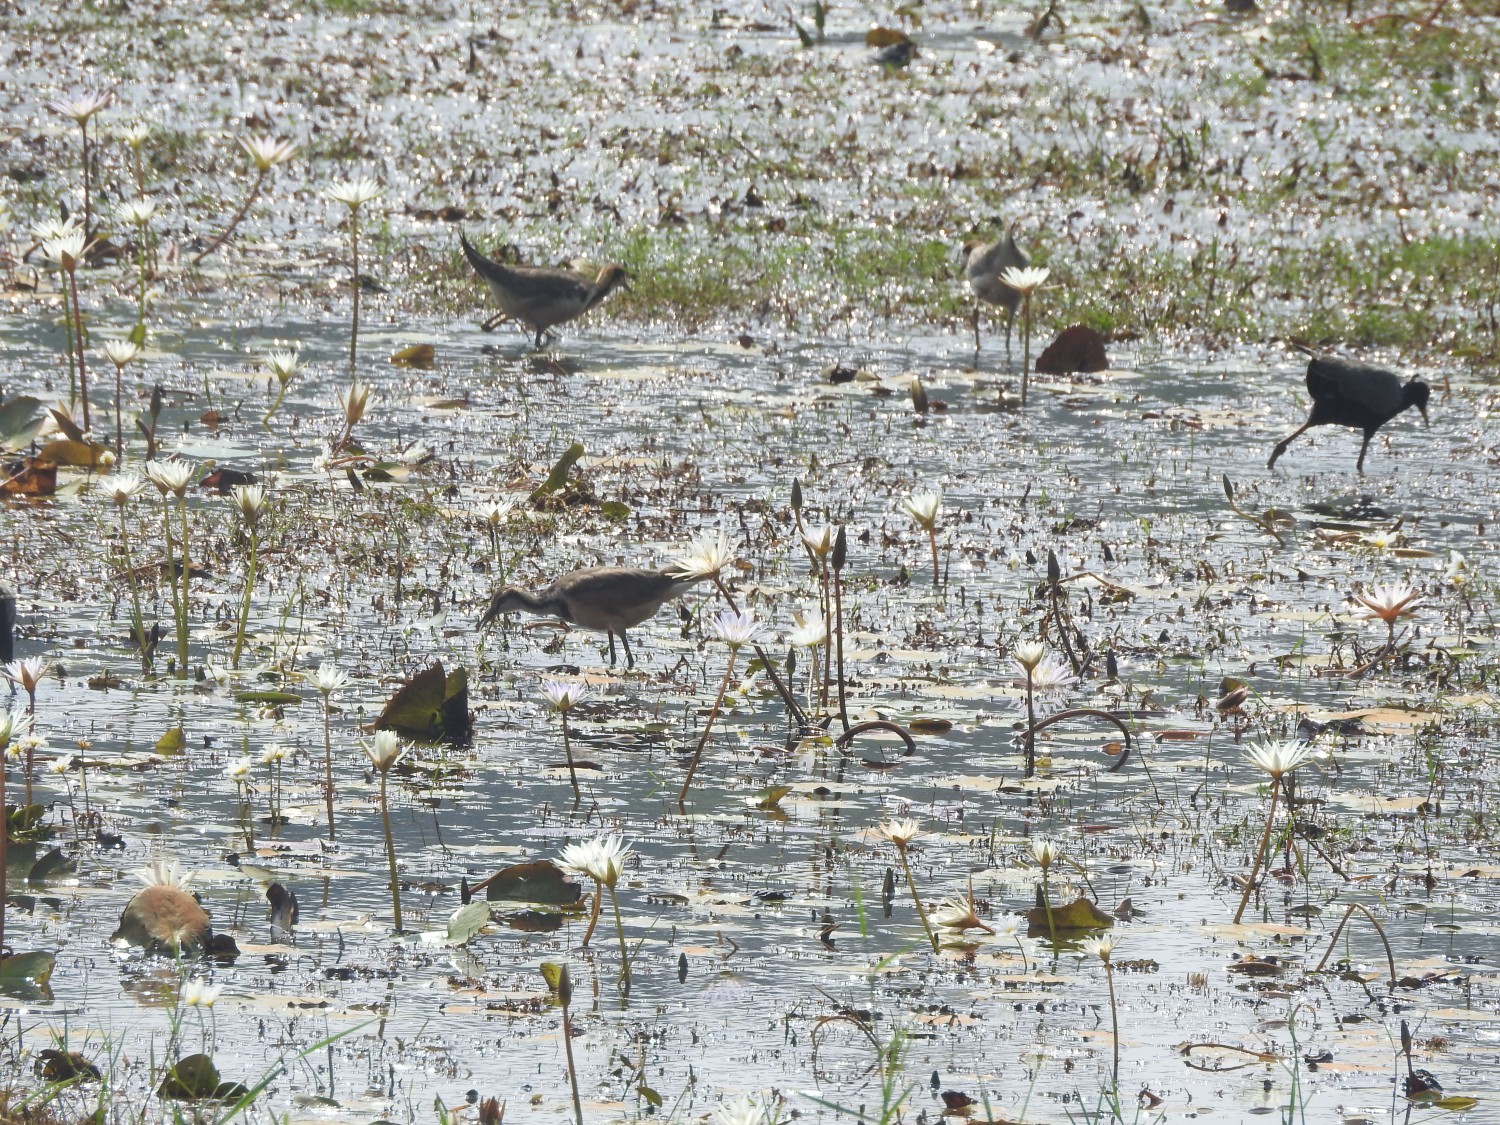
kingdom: Animalia
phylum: Chordata
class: Aves
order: Charadriiformes
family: Jacanidae
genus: Metopidius
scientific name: Metopidius indicus
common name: Bronze-winged jacana
